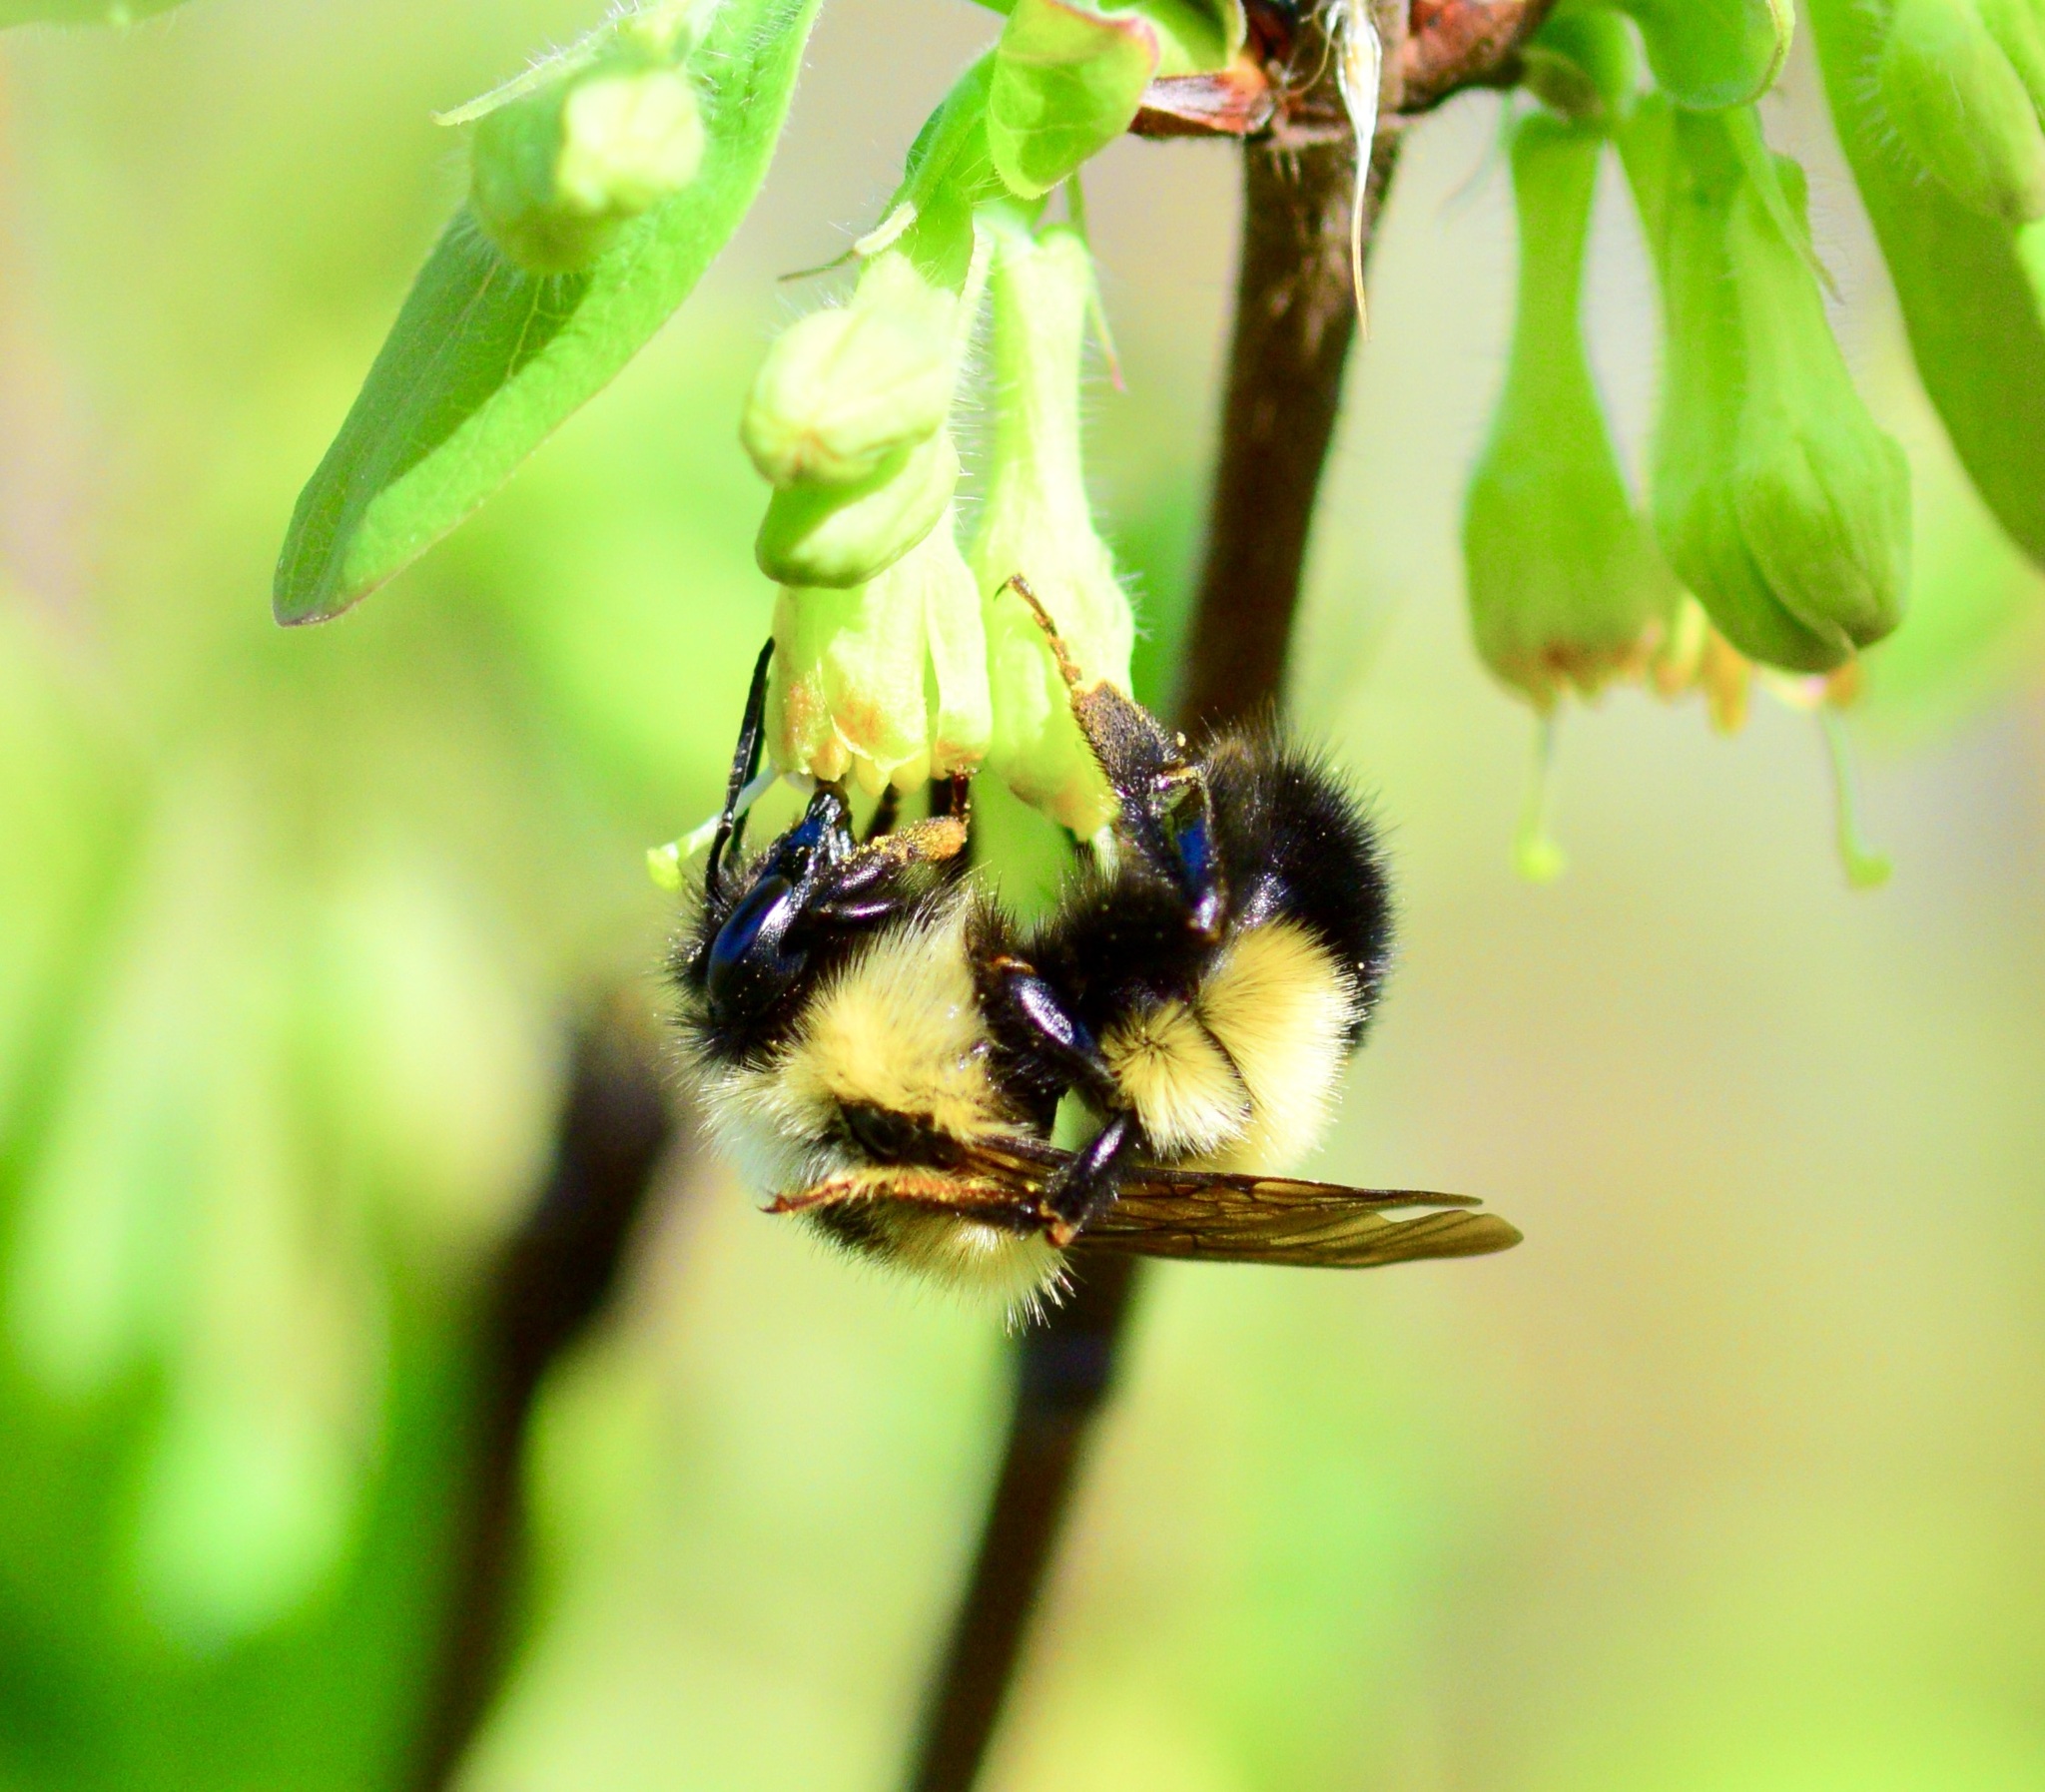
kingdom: Animalia
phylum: Arthropoda
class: Insecta
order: Hymenoptera
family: Apidae
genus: Bombus
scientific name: Bombus vagans
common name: Half-black bumble bee
